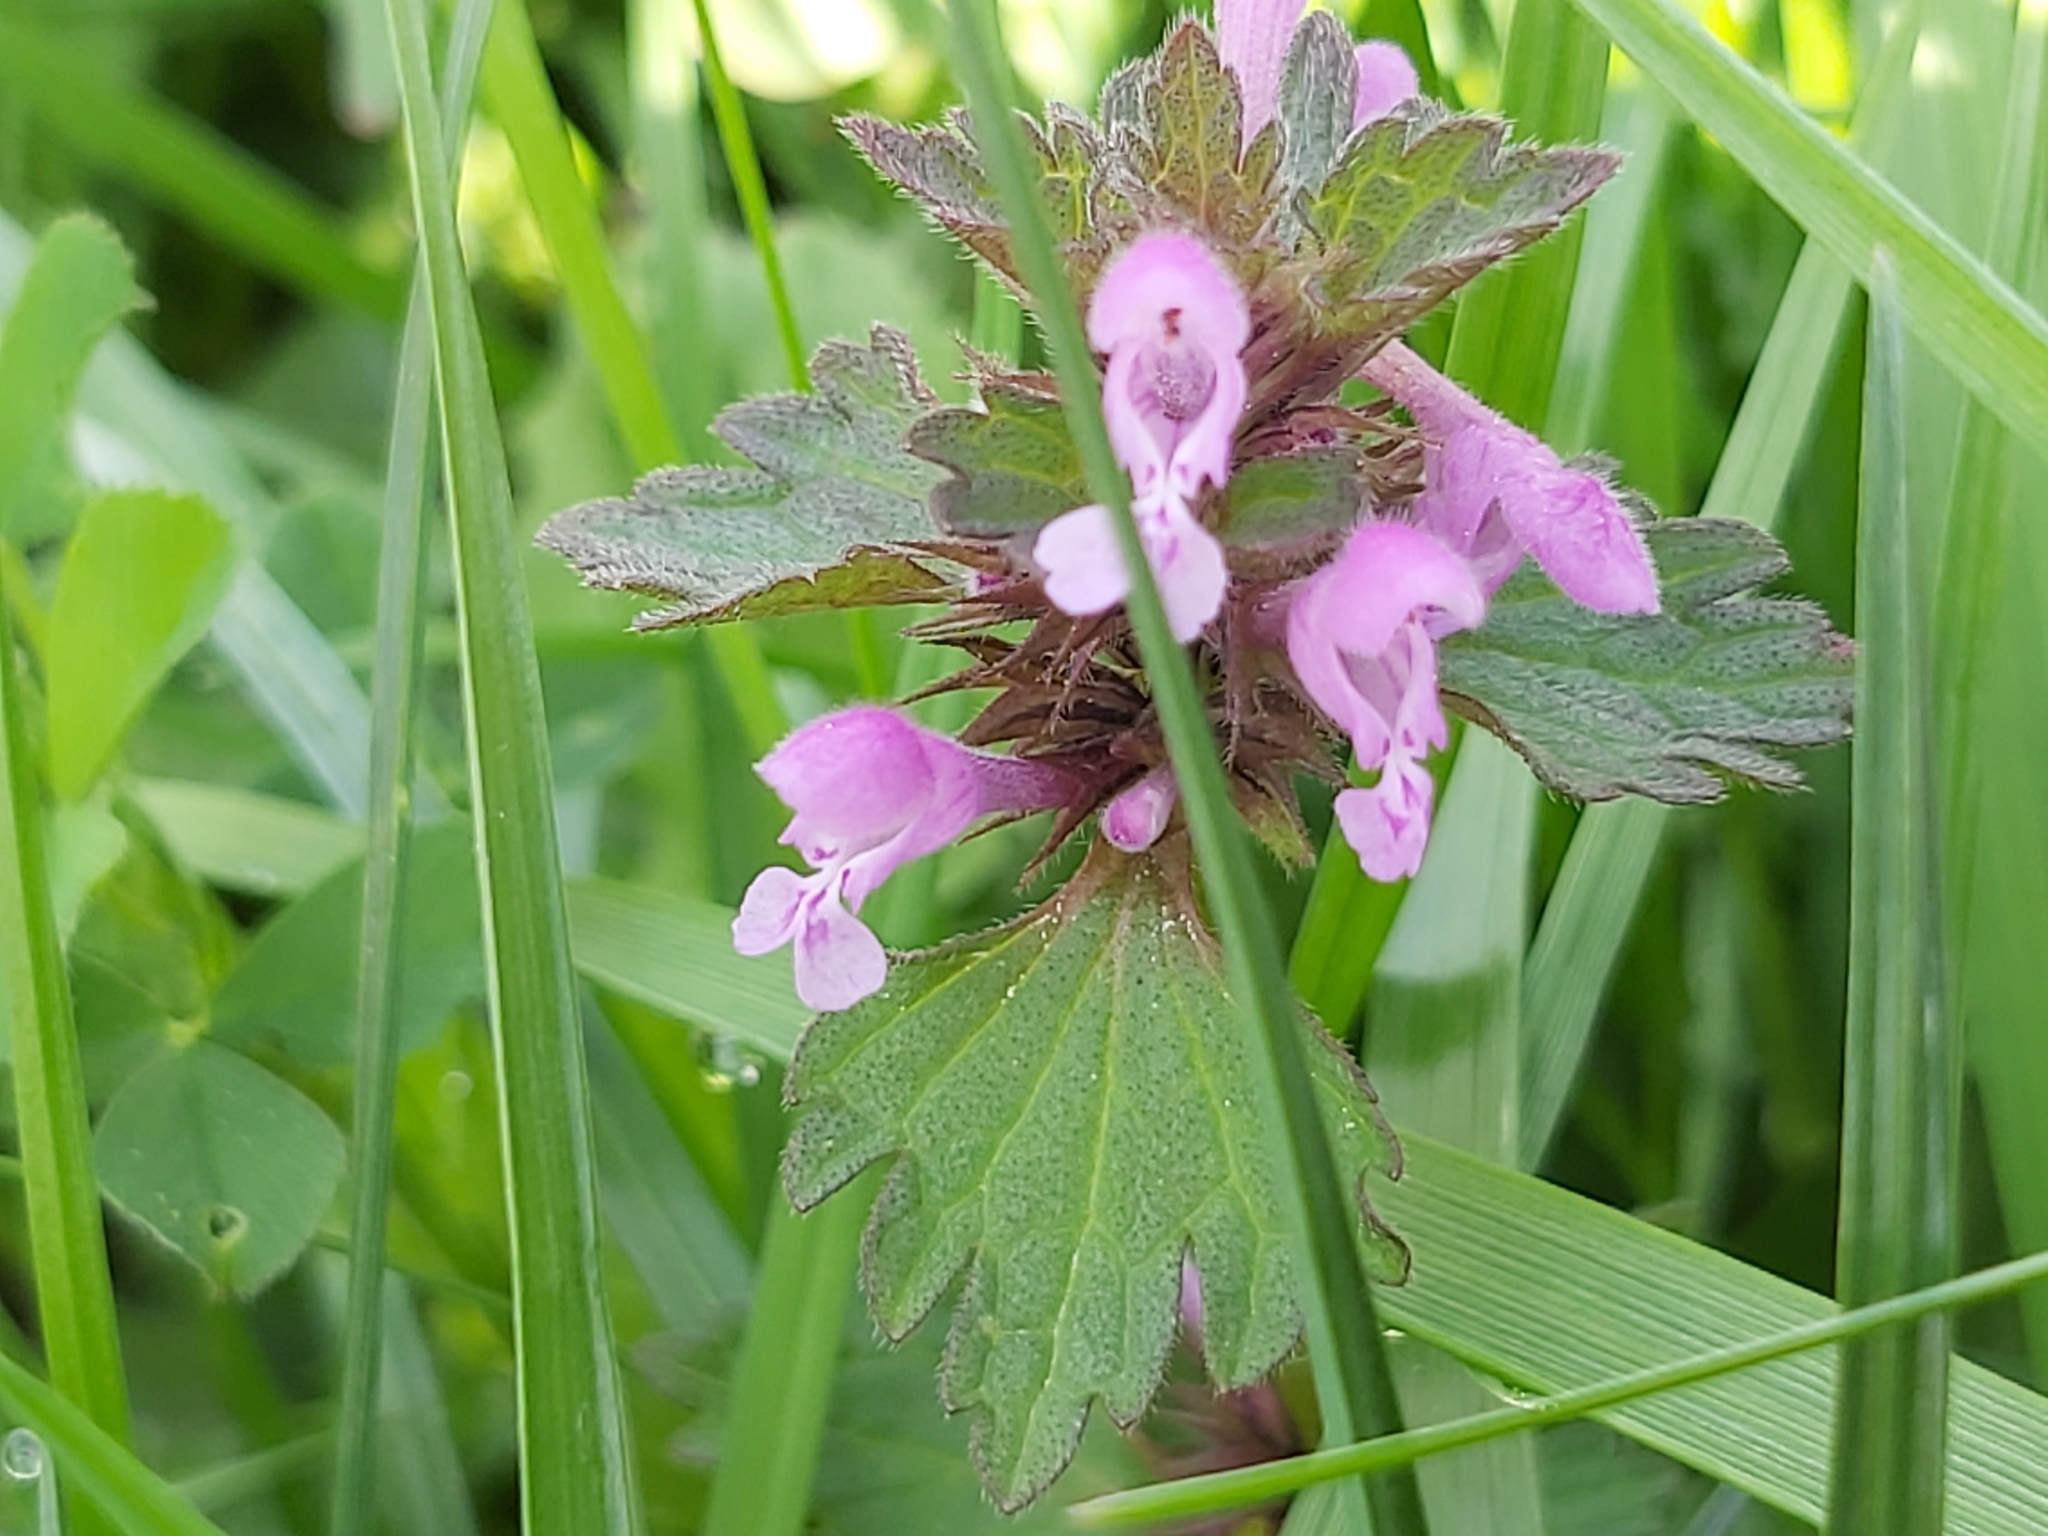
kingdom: Plantae
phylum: Tracheophyta
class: Magnoliopsida
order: Lamiales
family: Lamiaceae
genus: Lamium
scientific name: Lamium hybridum
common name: Cut-leaved dead-nettle
